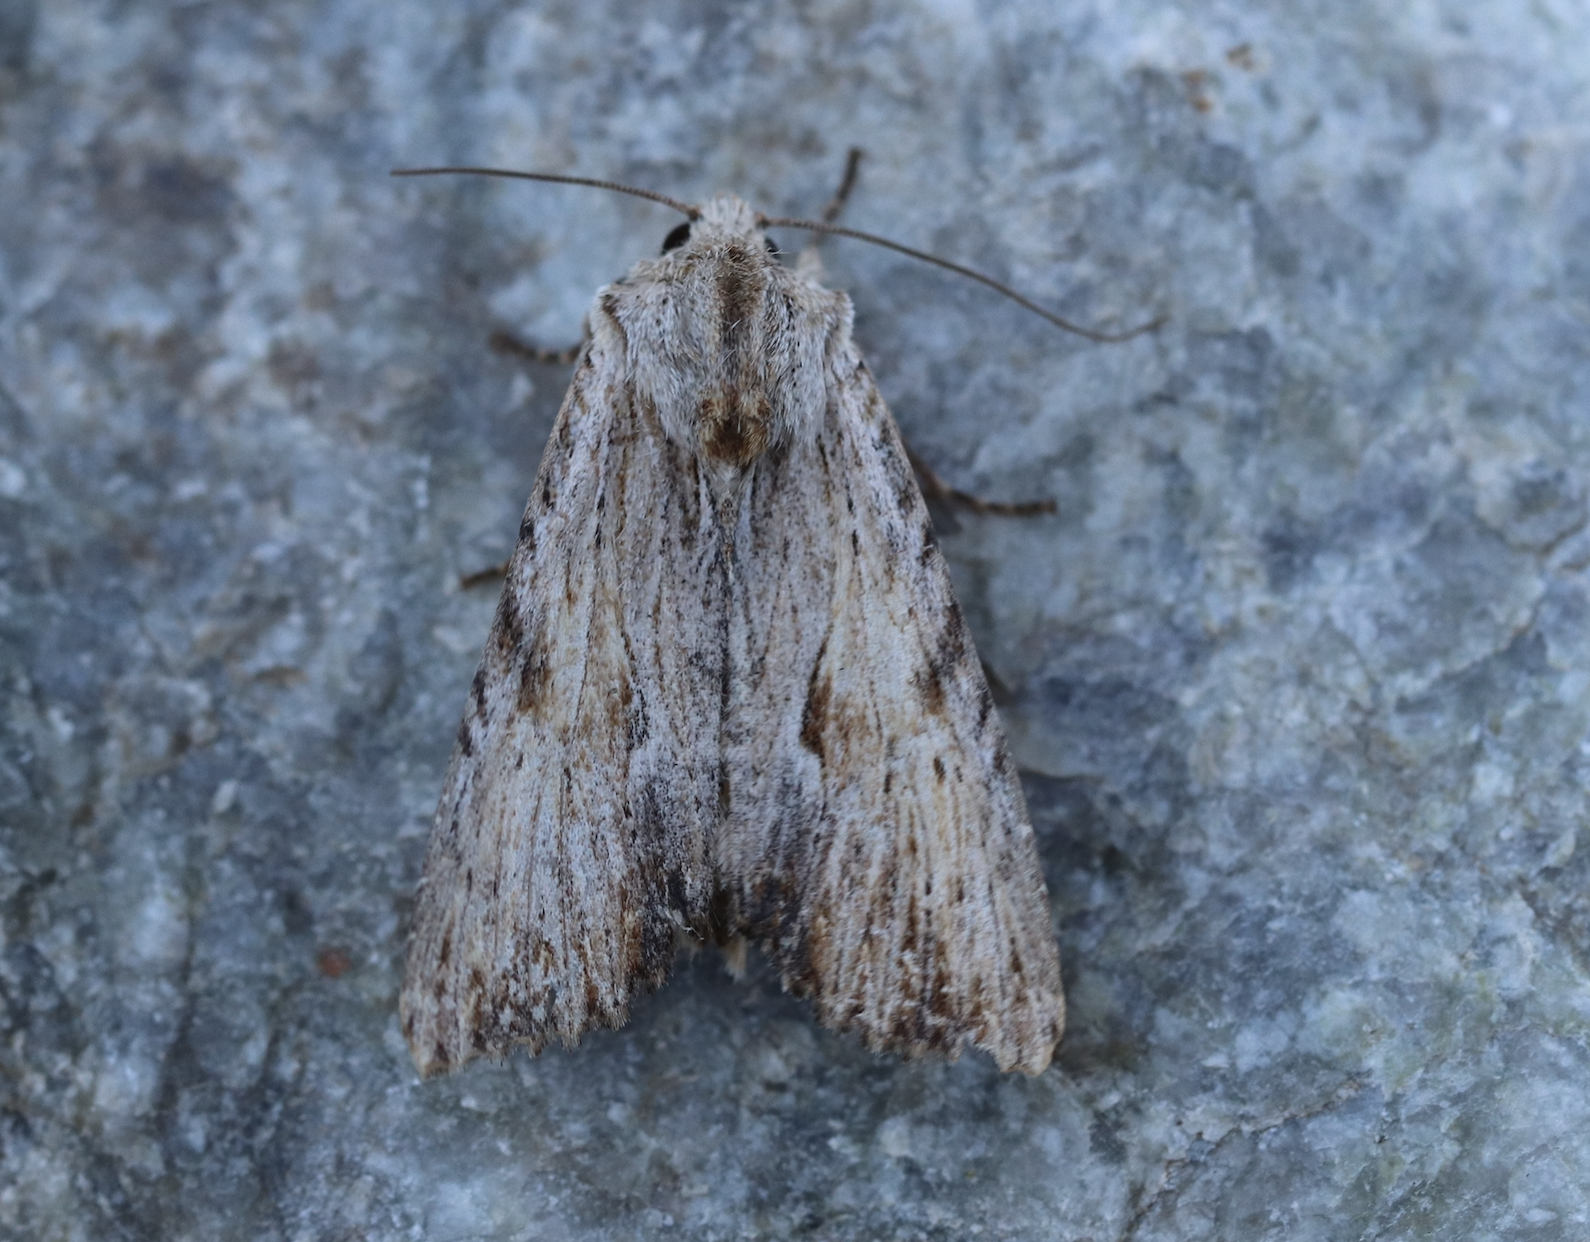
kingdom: Animalia
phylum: Arthropoda
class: Insecta
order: Lepidoptera
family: Noctuidae
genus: Apamea
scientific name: Apamea lithoxylaea
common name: Light arches
